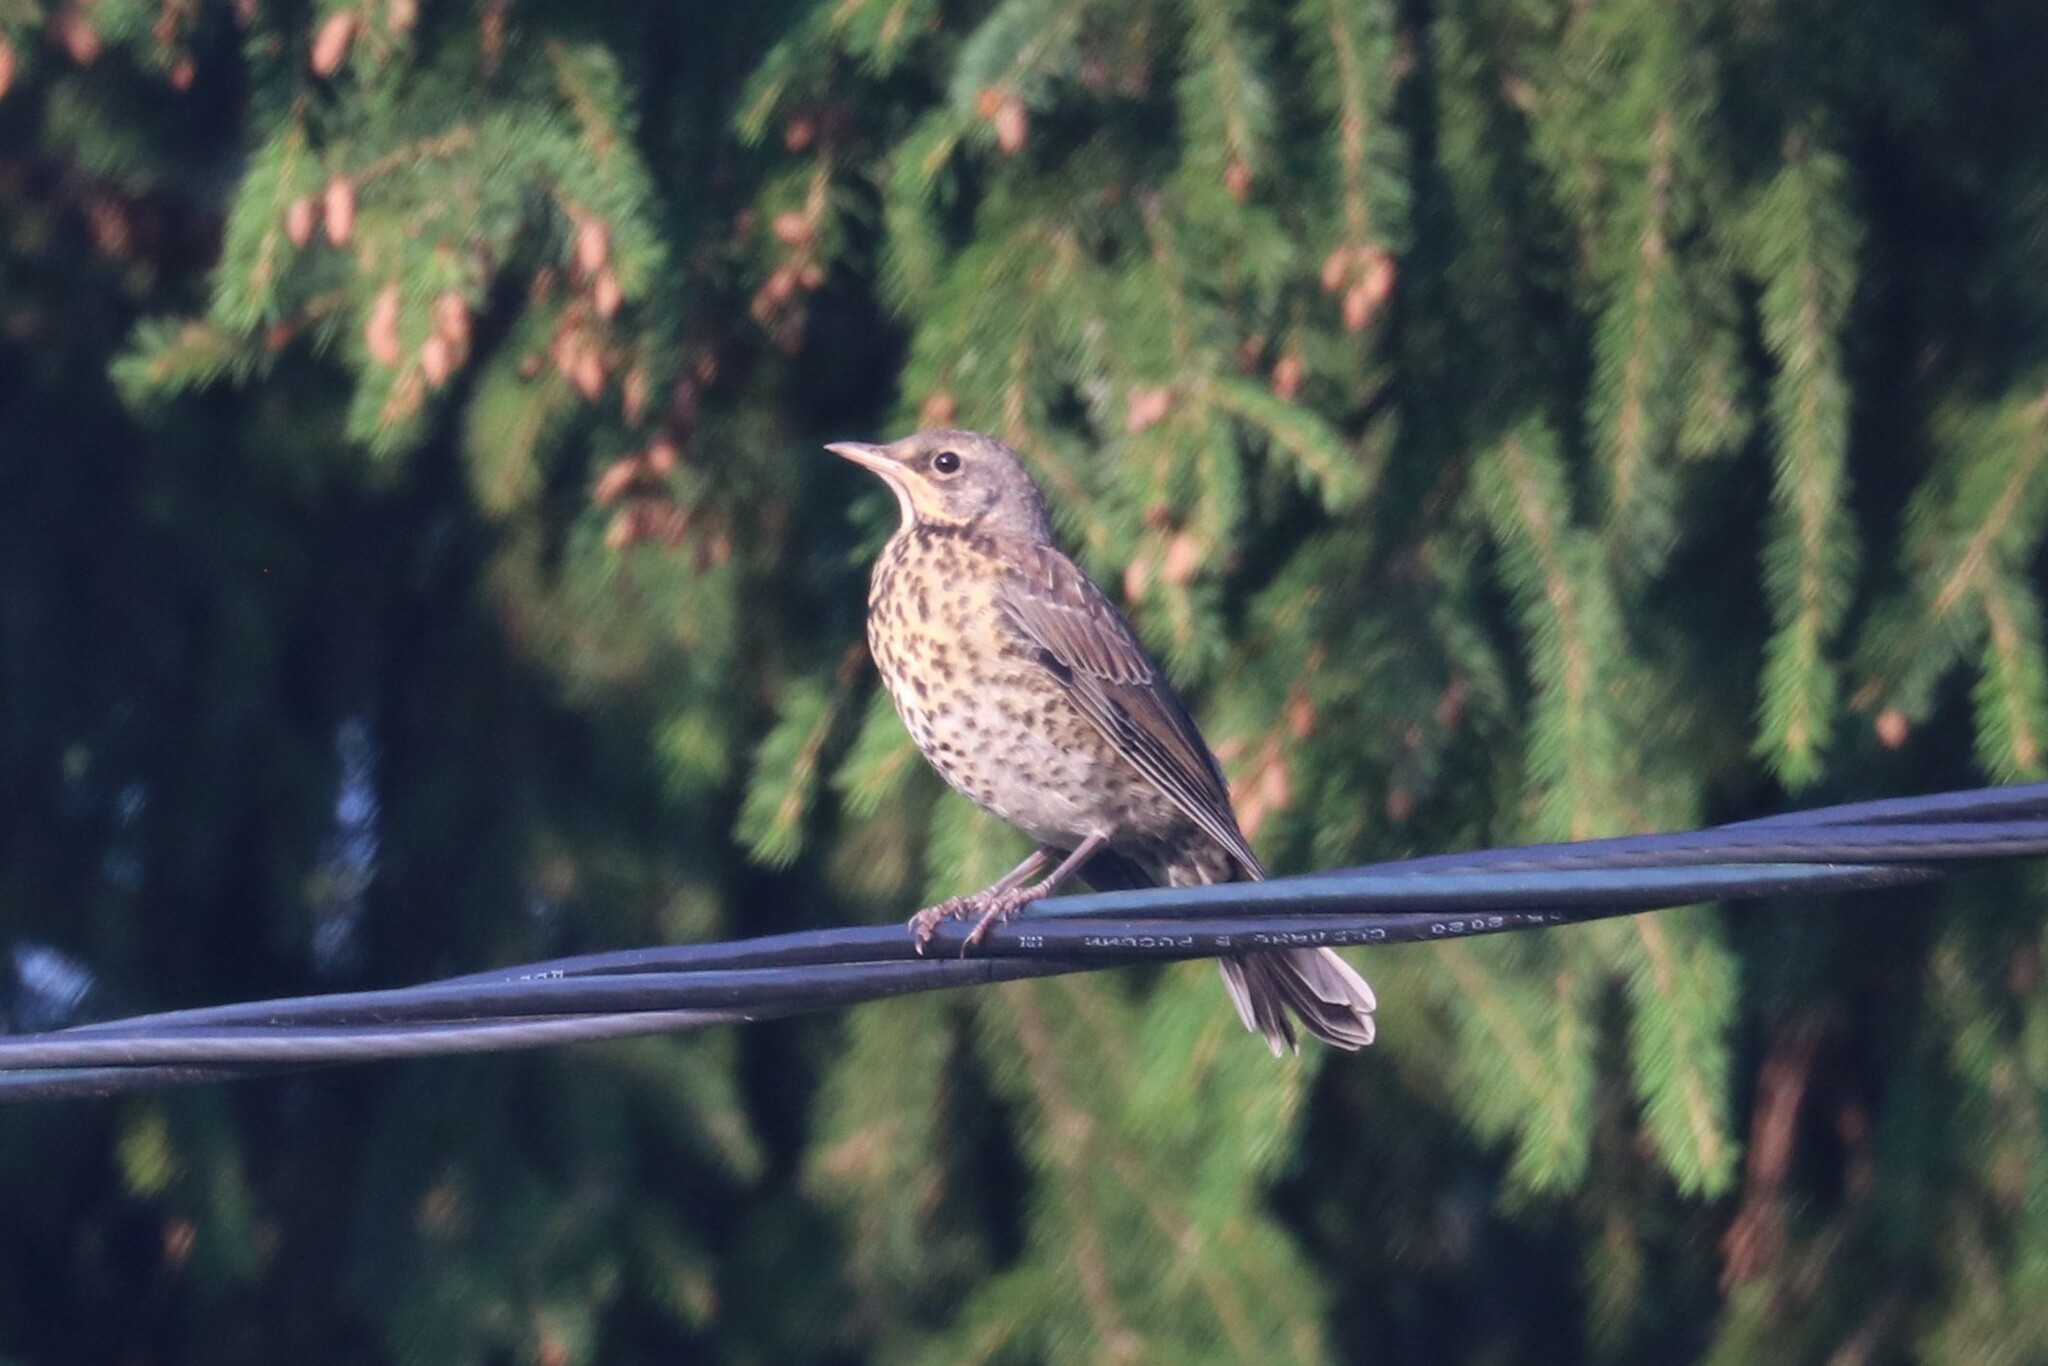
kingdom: Animalia
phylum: Chordata
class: Aves
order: Passeriformes
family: Turdidae
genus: Turdus
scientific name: Turdus pilaris
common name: Fieldfare
